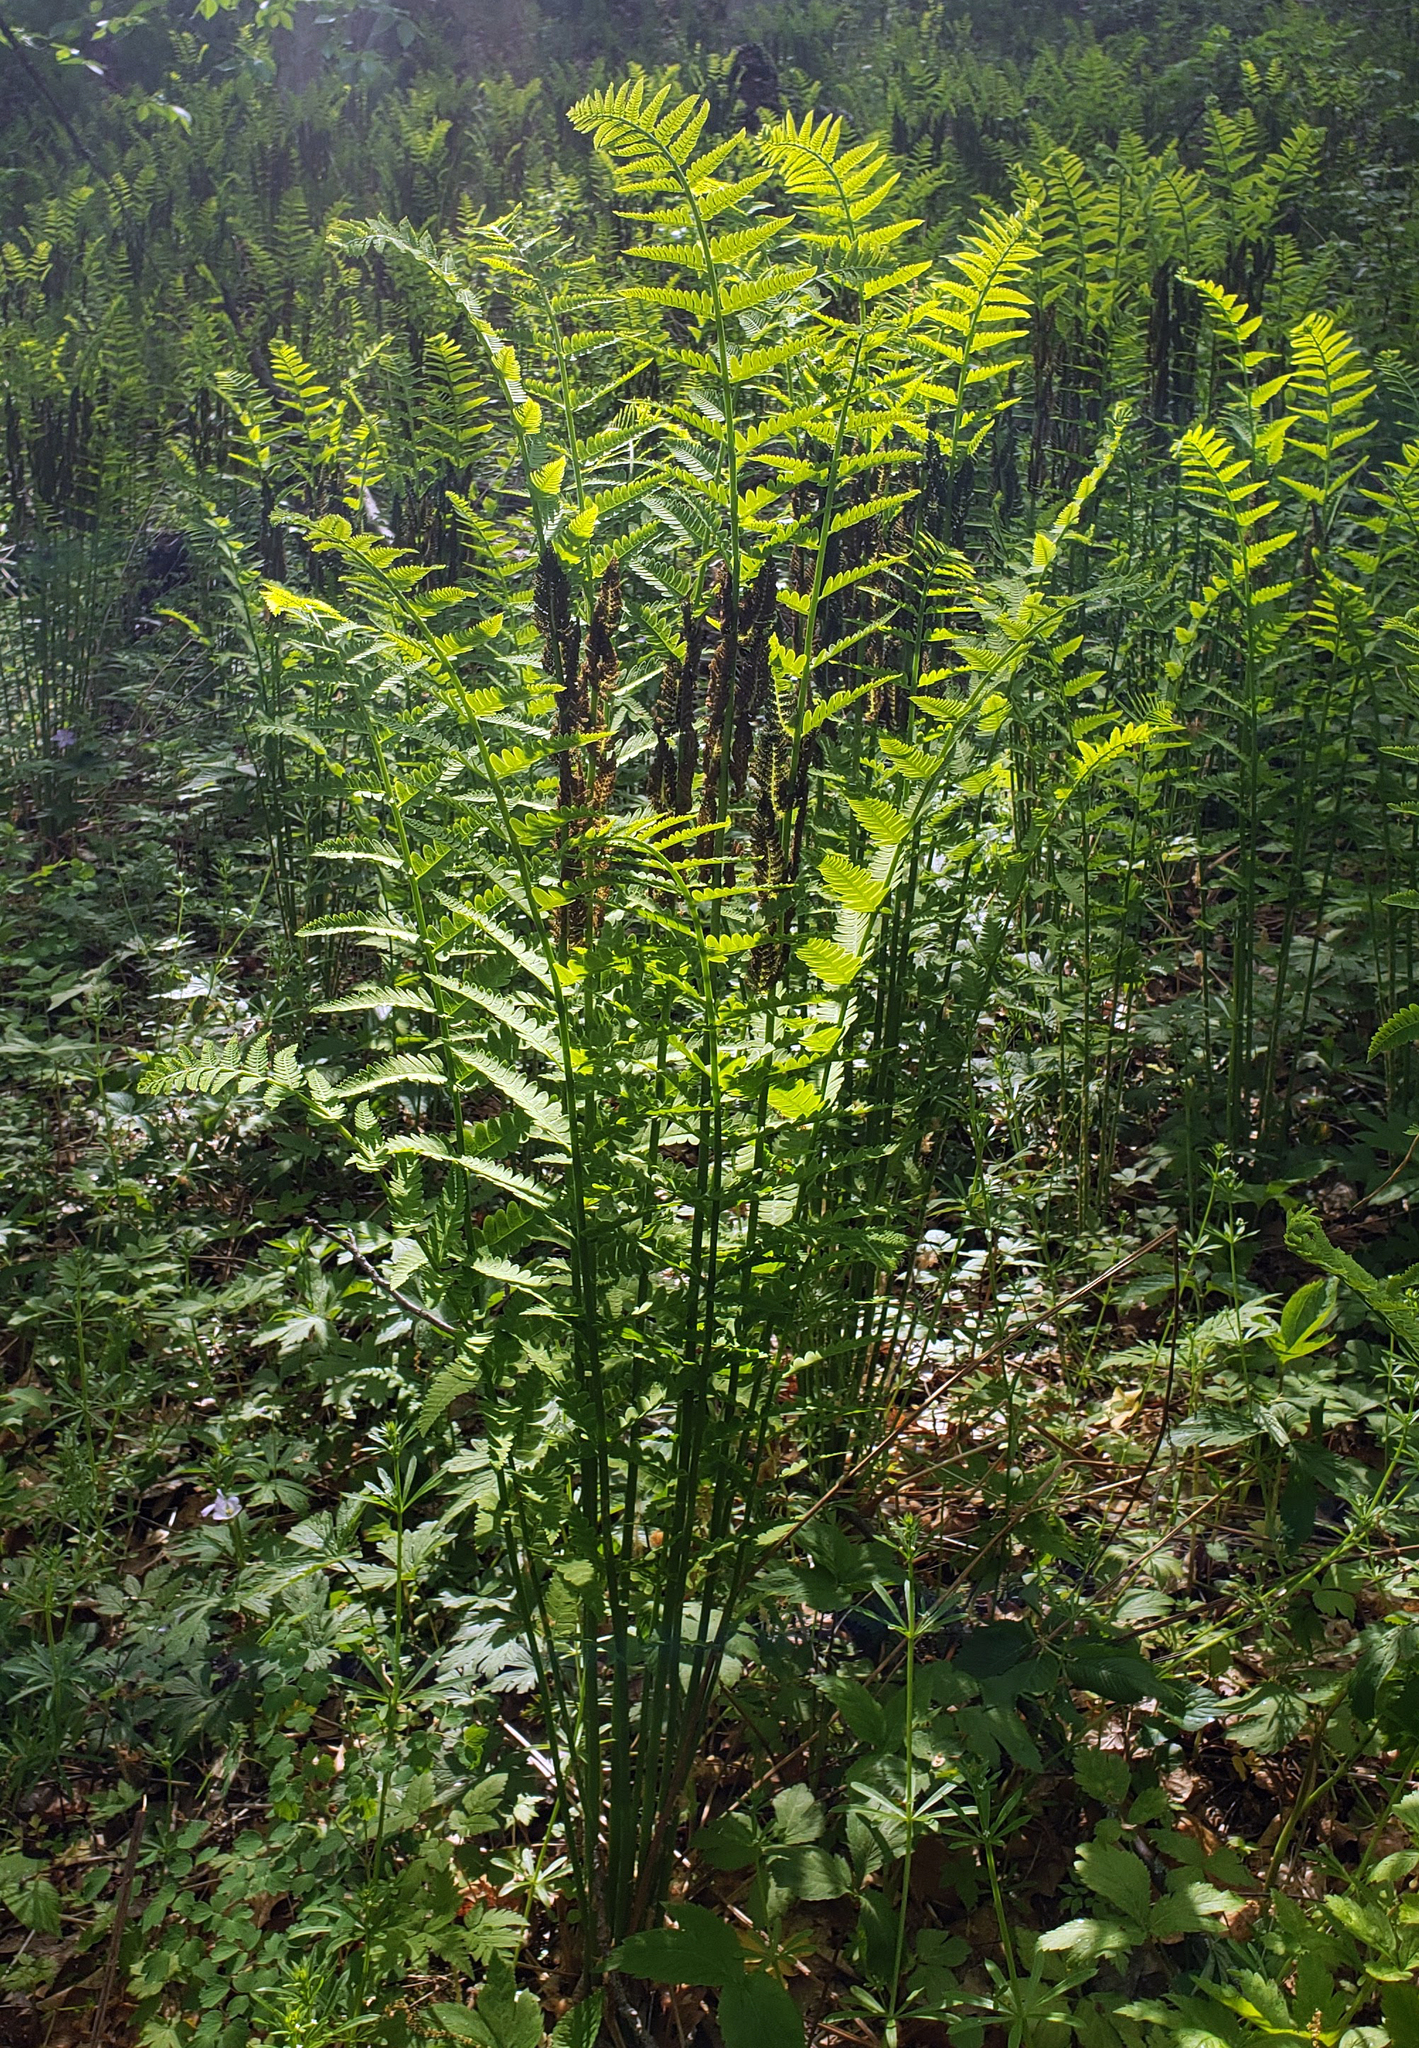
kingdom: Plantae
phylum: Tracheophyta
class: Polypodiopsida
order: Osmundales
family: Osmundaceae
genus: Claytosmunda
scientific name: Claytosmunda claytoniana
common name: Clayton's fern
